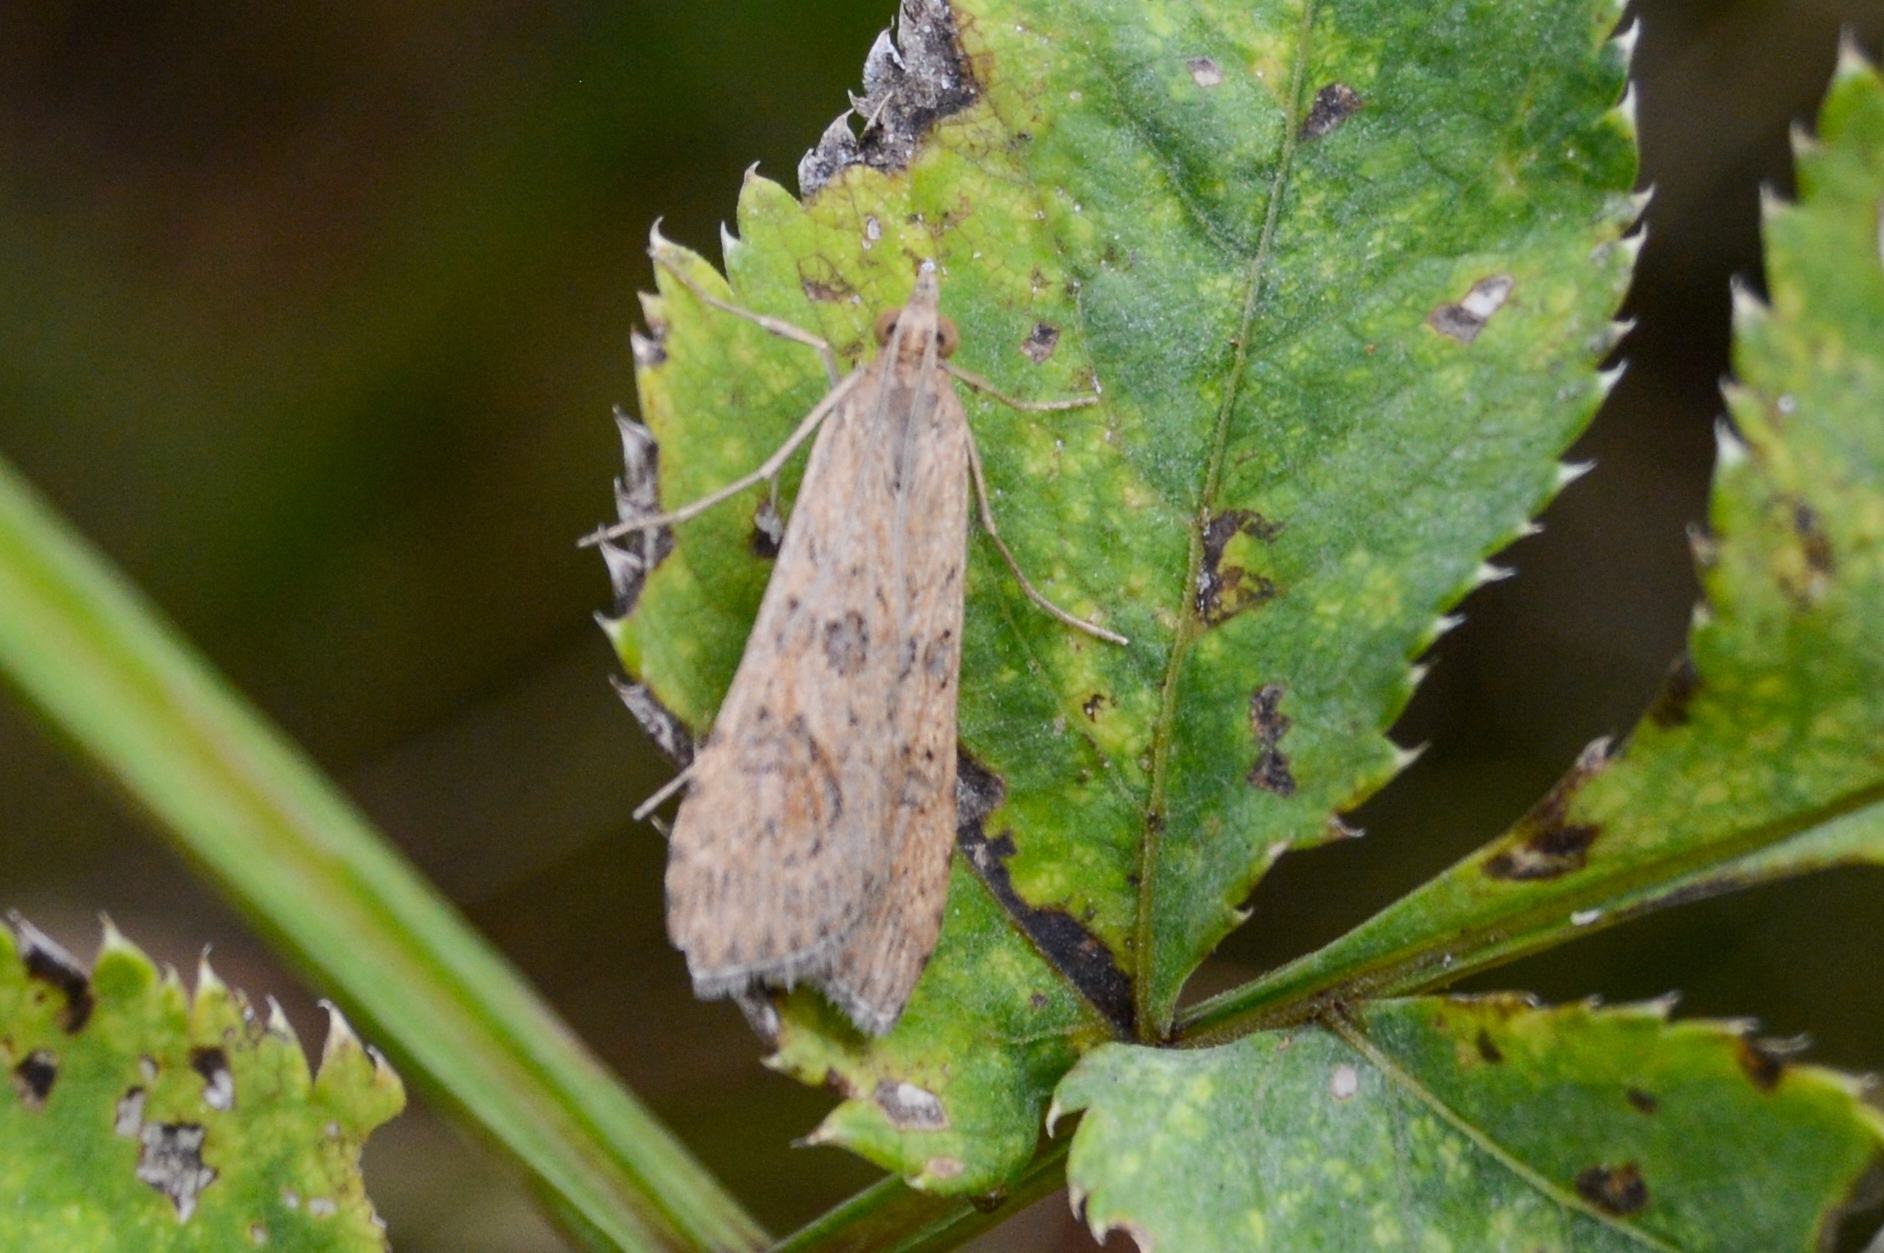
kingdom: Animalia
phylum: Arthropoda
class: Insecta
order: Lepidoptera
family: Crambidae
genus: Nomophila
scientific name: Nomophila noctuella
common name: Rush veneer
